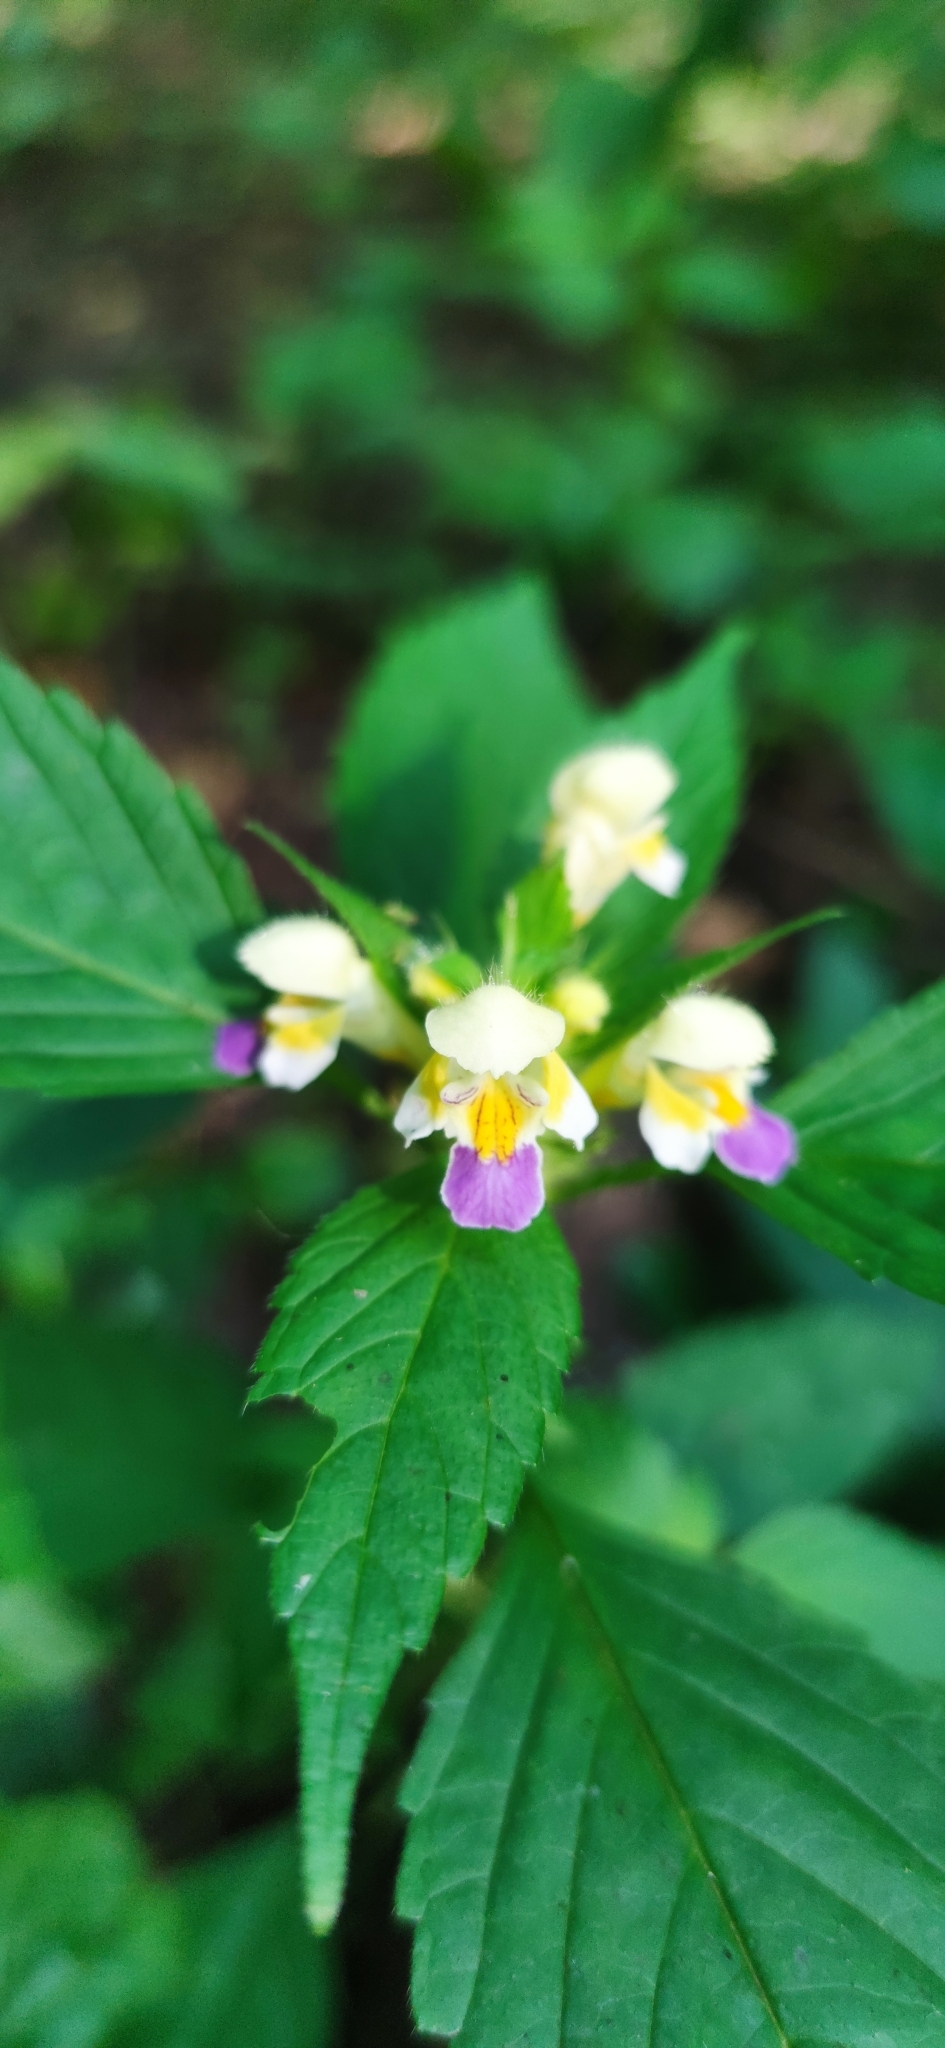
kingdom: Plantae
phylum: Tracheophyta
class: Magnoliopsida
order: Lamiales
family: Lamiaceae
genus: Galeopsis
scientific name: Galeopsis speciosa
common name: Large-flowered hemp-nettle
